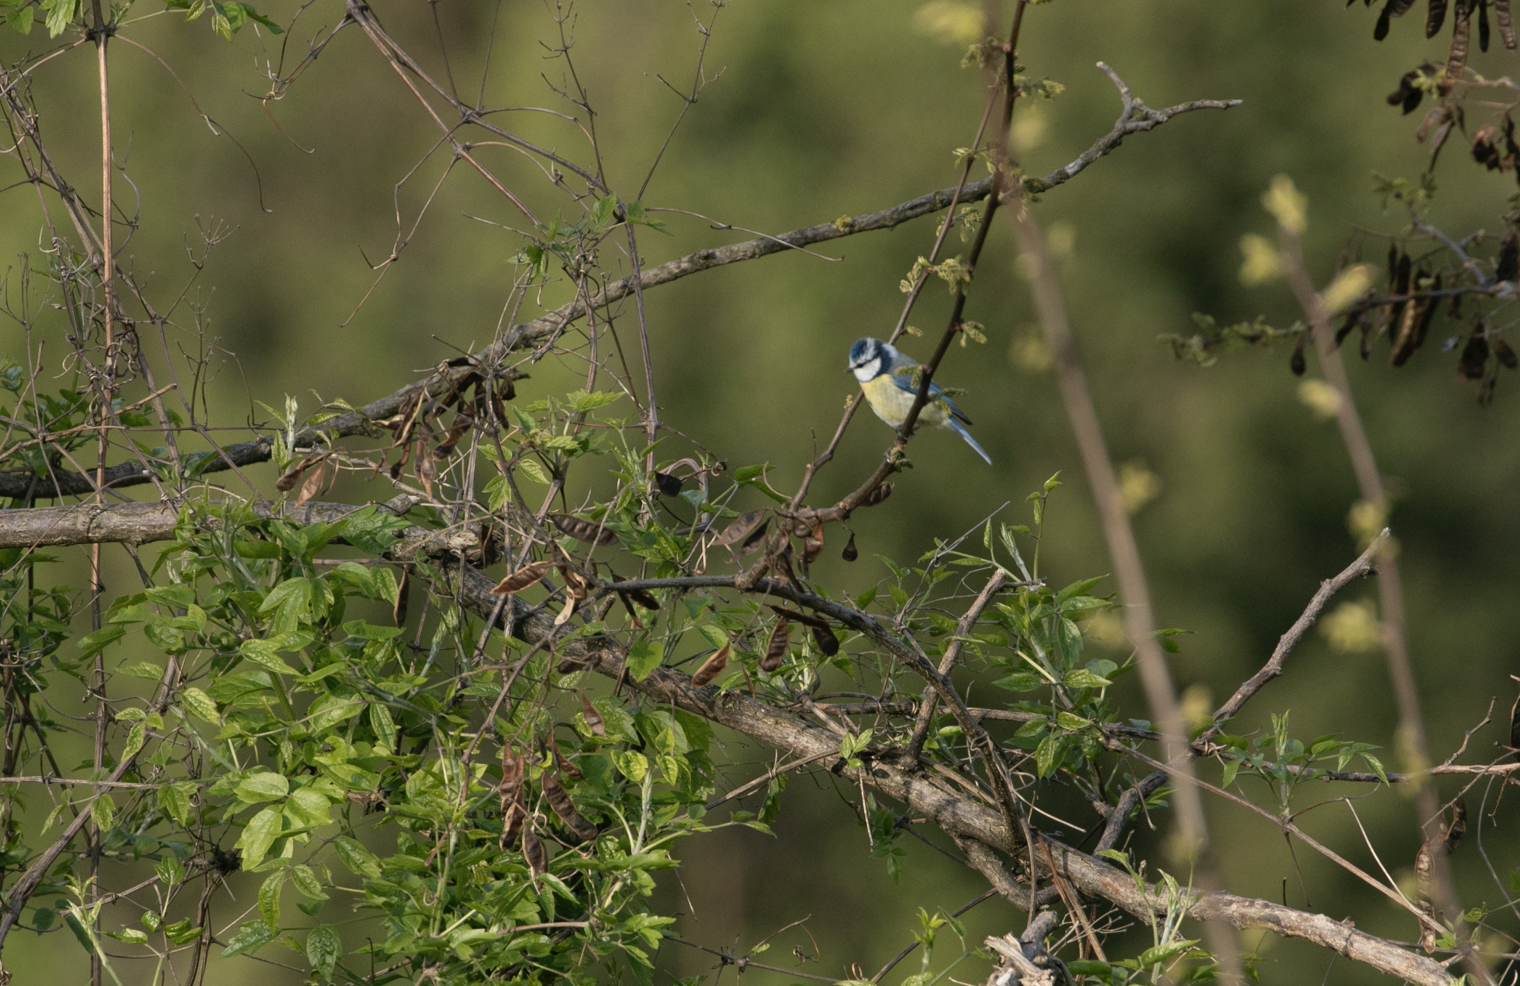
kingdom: Animalia
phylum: Chordata
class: Aves
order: Passeriformes
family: Paridae
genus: Cyanistes
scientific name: Cyanistes caeruleus
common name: Eurasian blue tit
